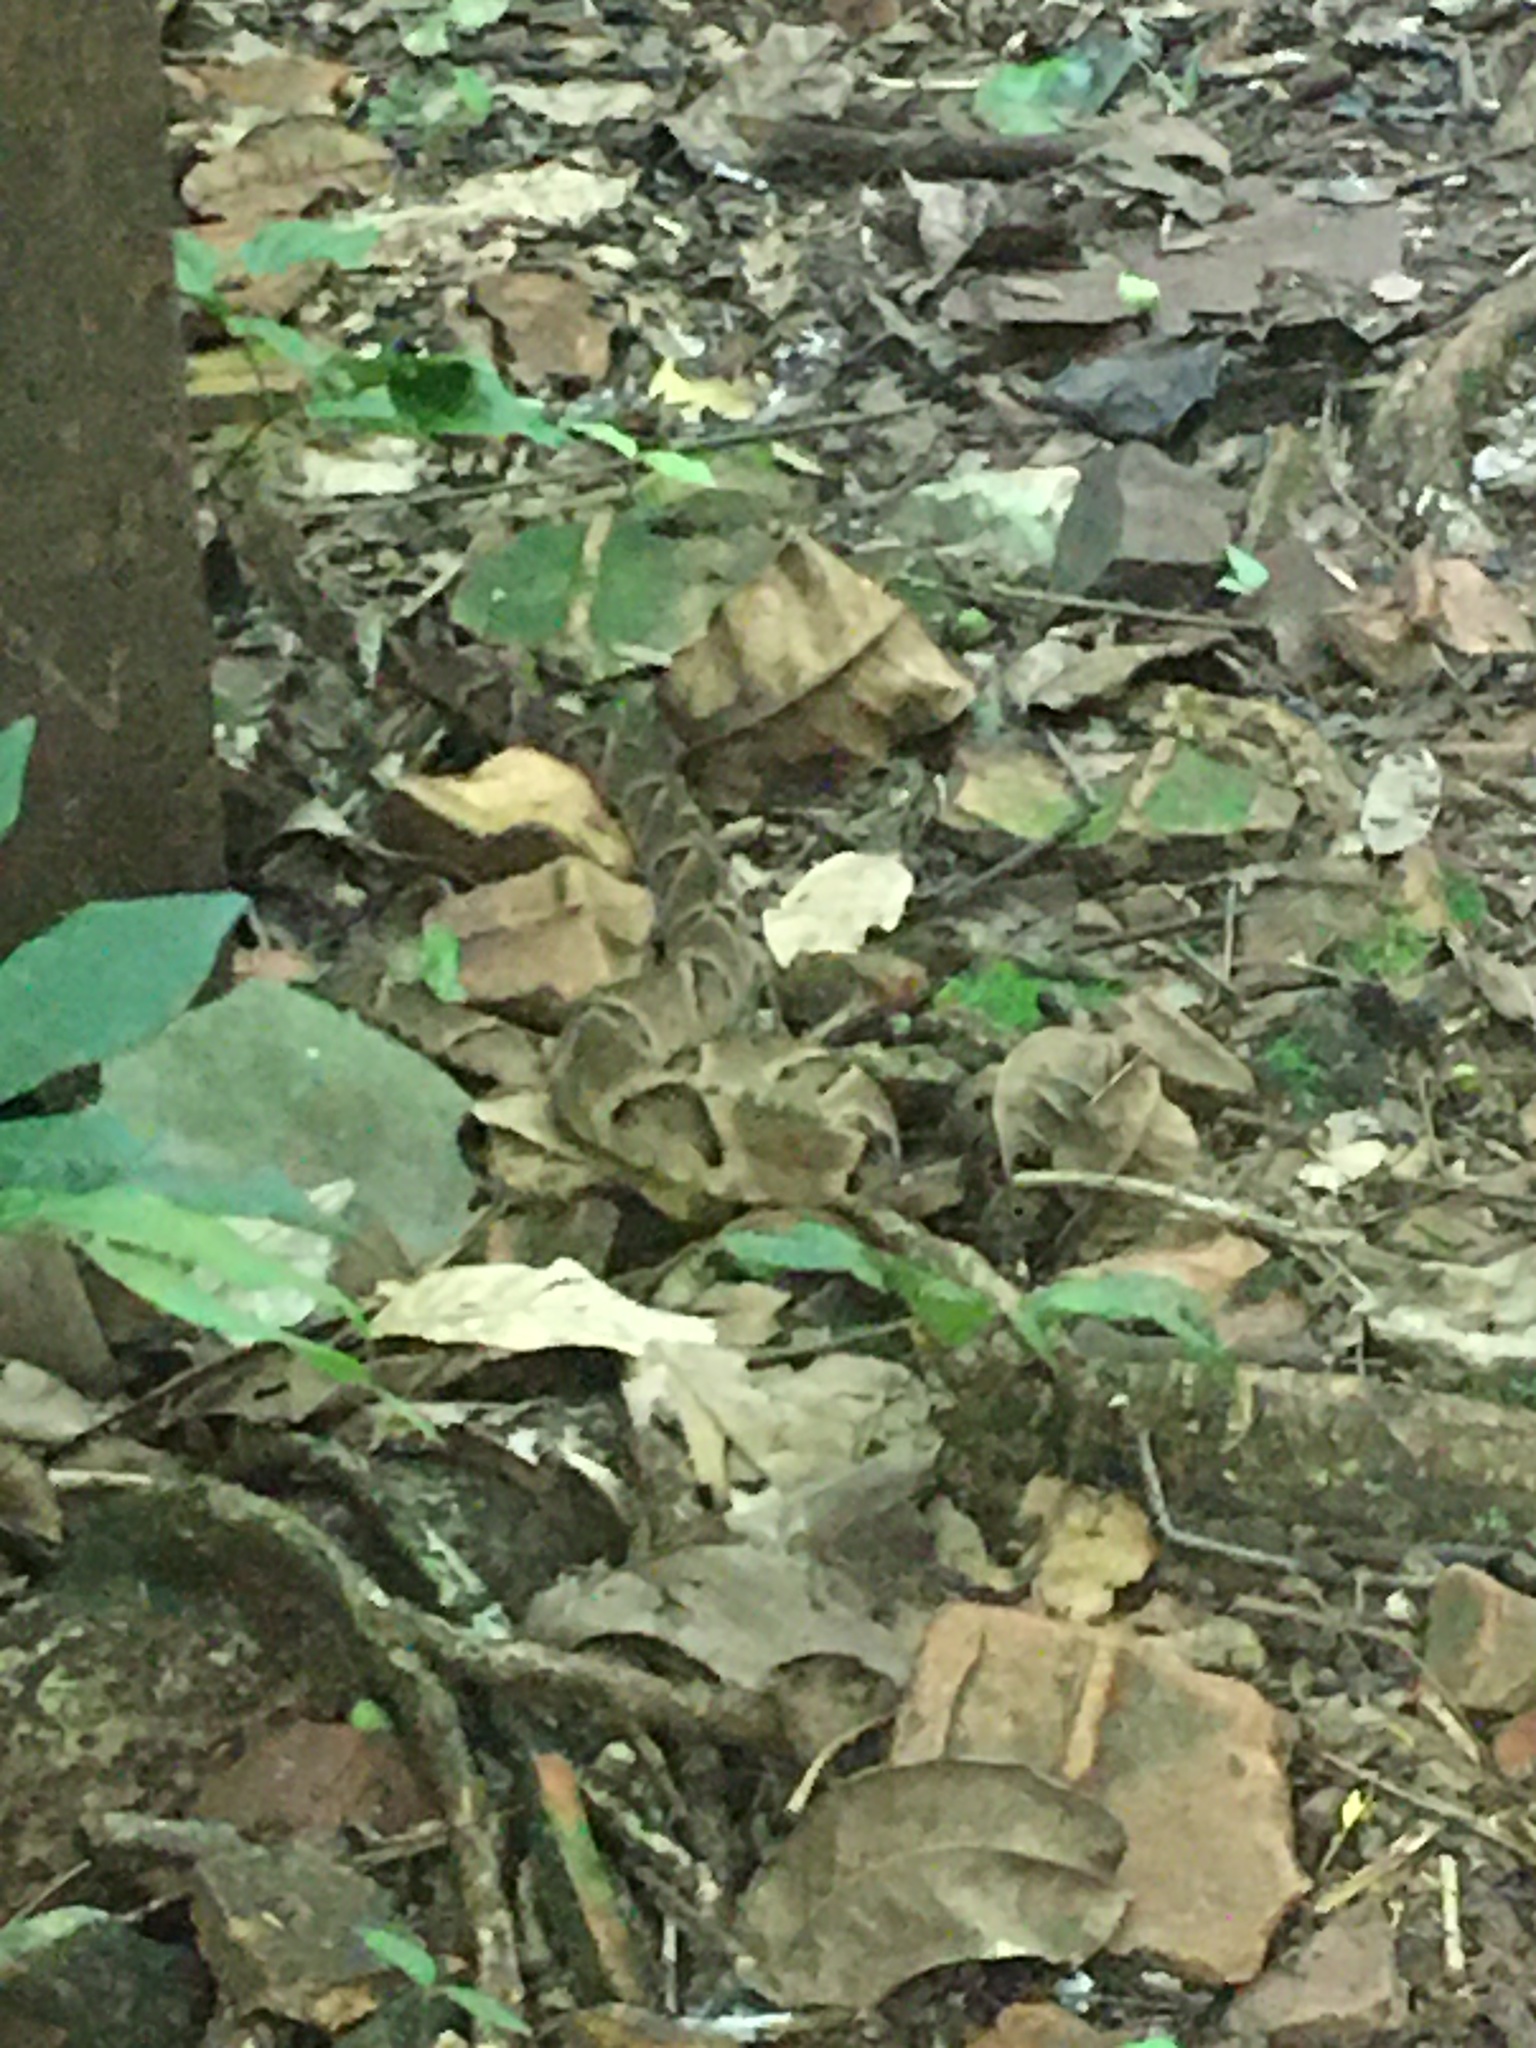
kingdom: Animalia
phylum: Chordata
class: Squamata
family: Viperidae
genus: Bothrops
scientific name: Bothrops moojeni
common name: Brazilian lancehead
